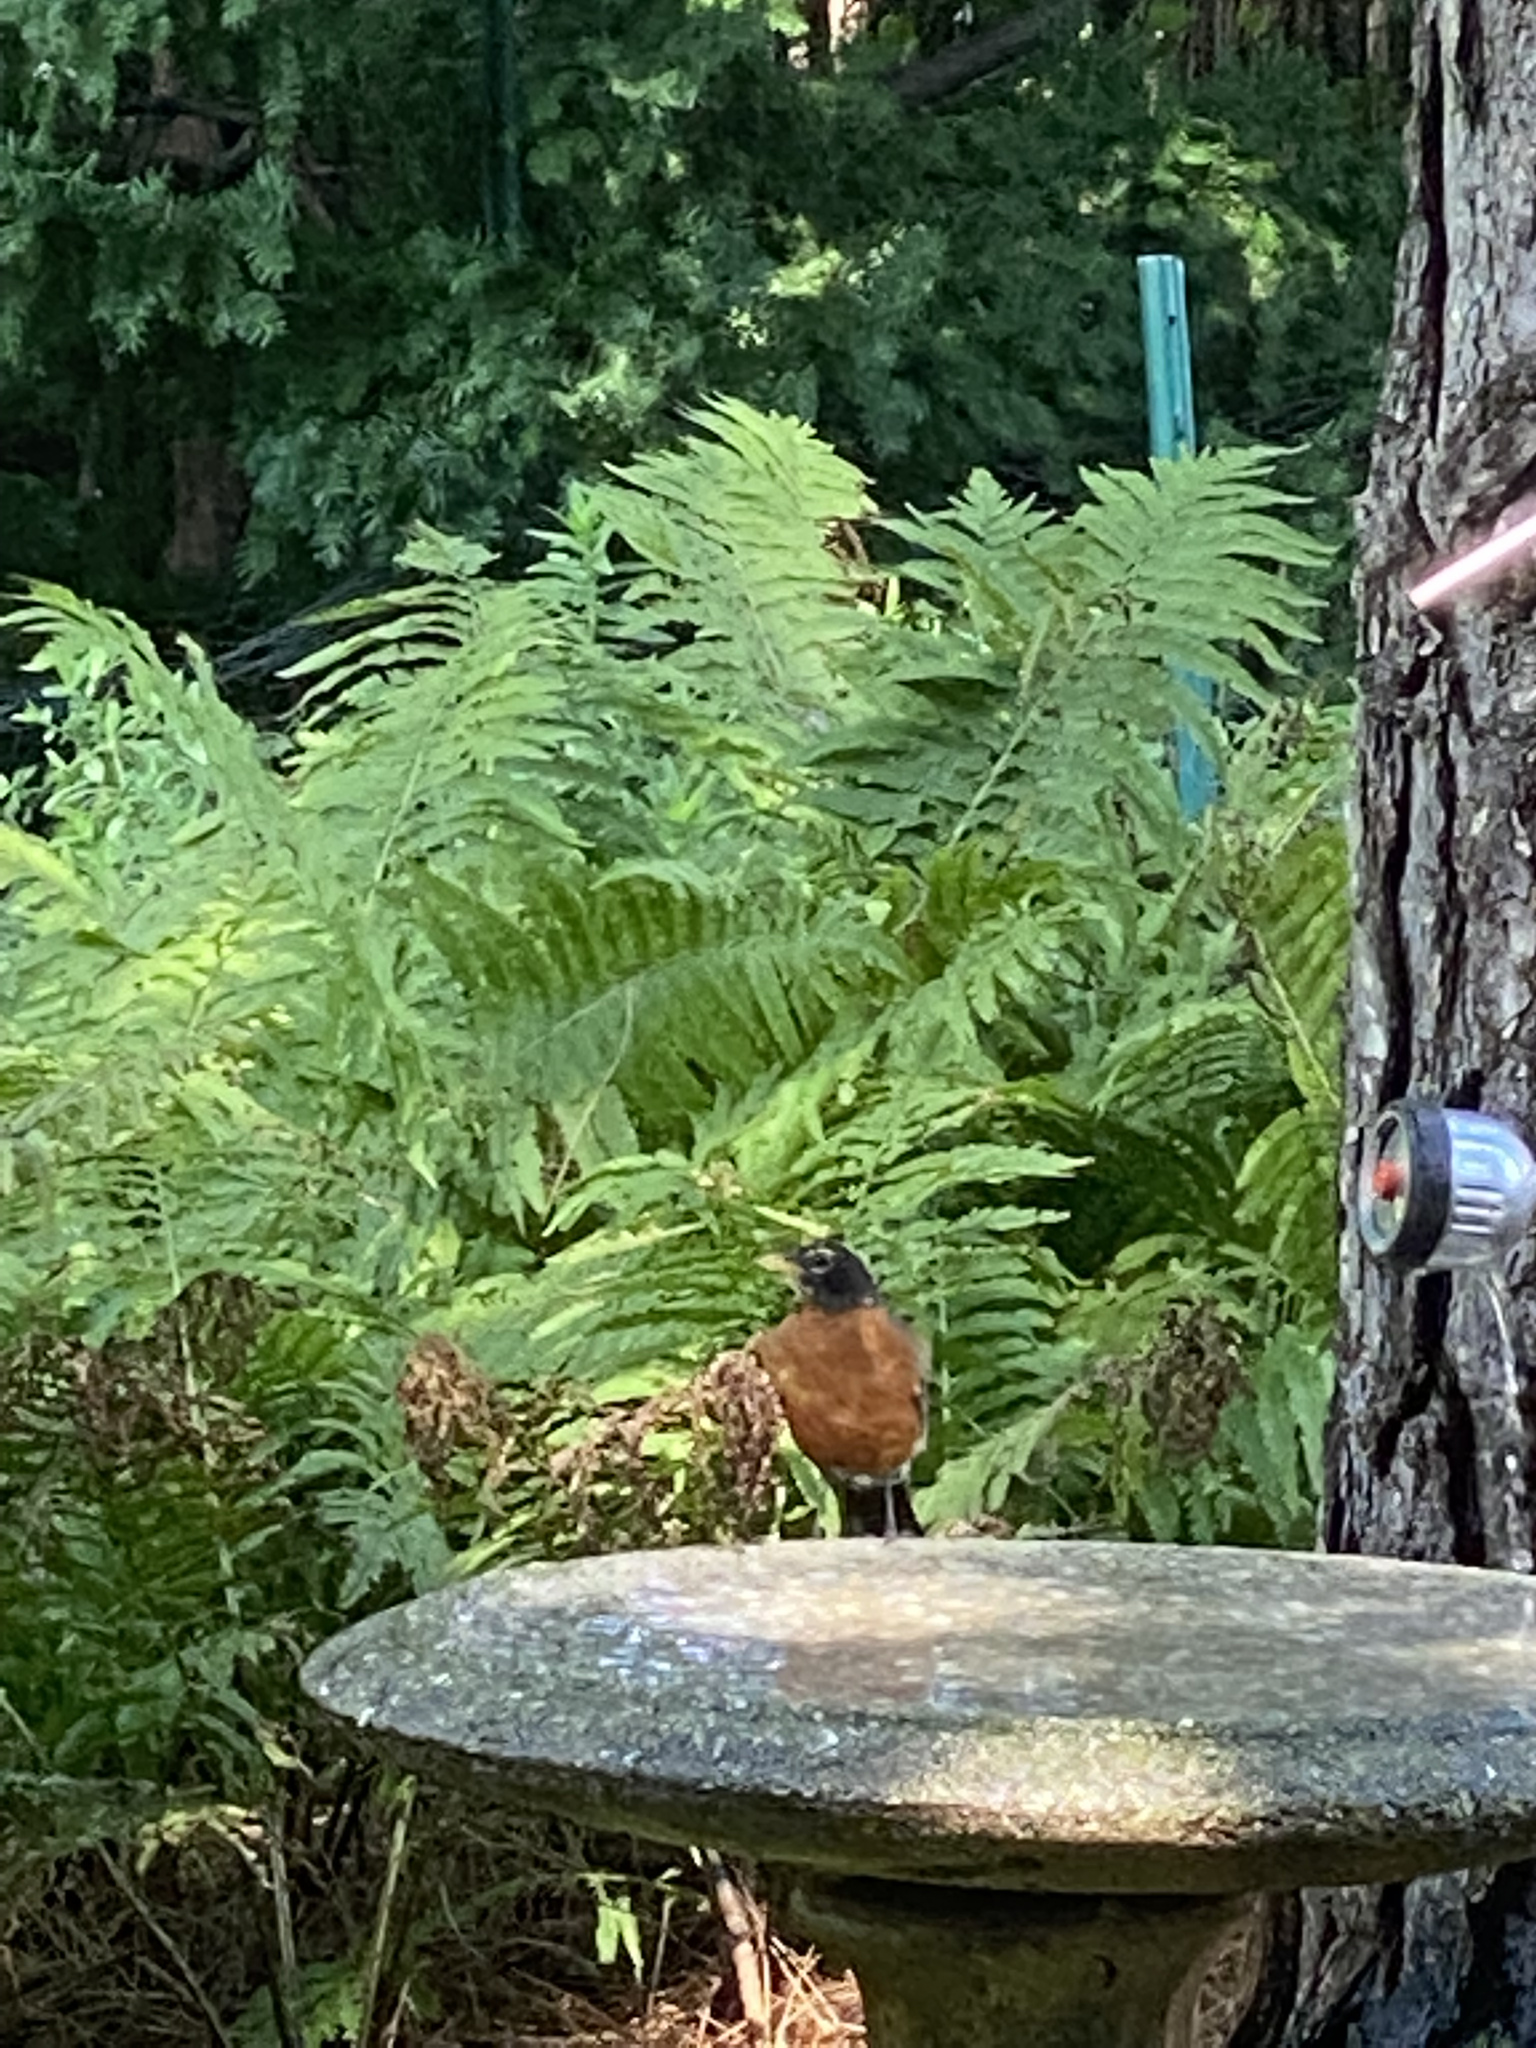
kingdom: Animalia
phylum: Chordata
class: Aves
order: Passeriformes
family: Turdidae
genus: Turdus
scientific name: Turdus migratorius
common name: American robin
